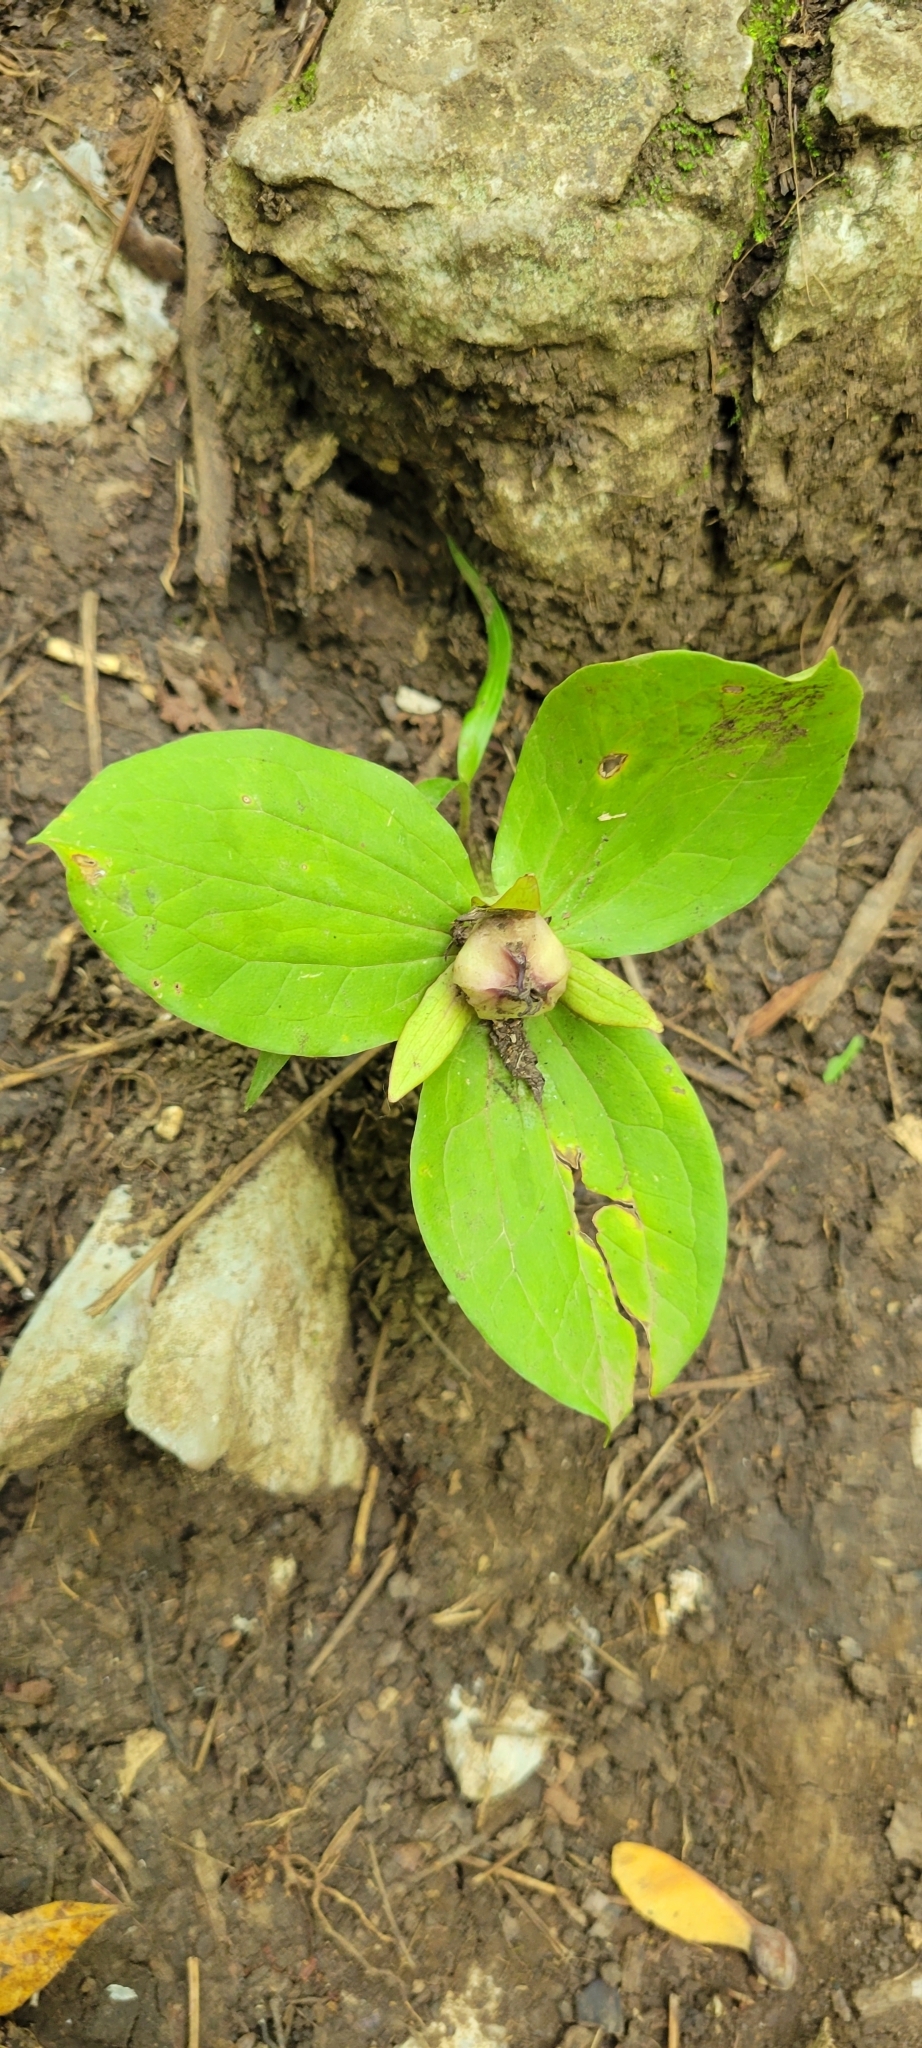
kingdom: Plantae
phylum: Tracheophyta
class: Liliopsida
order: Liliales
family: Melanthiaceae
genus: Trillium
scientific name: Trillium sessile
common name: Sessile trillium
